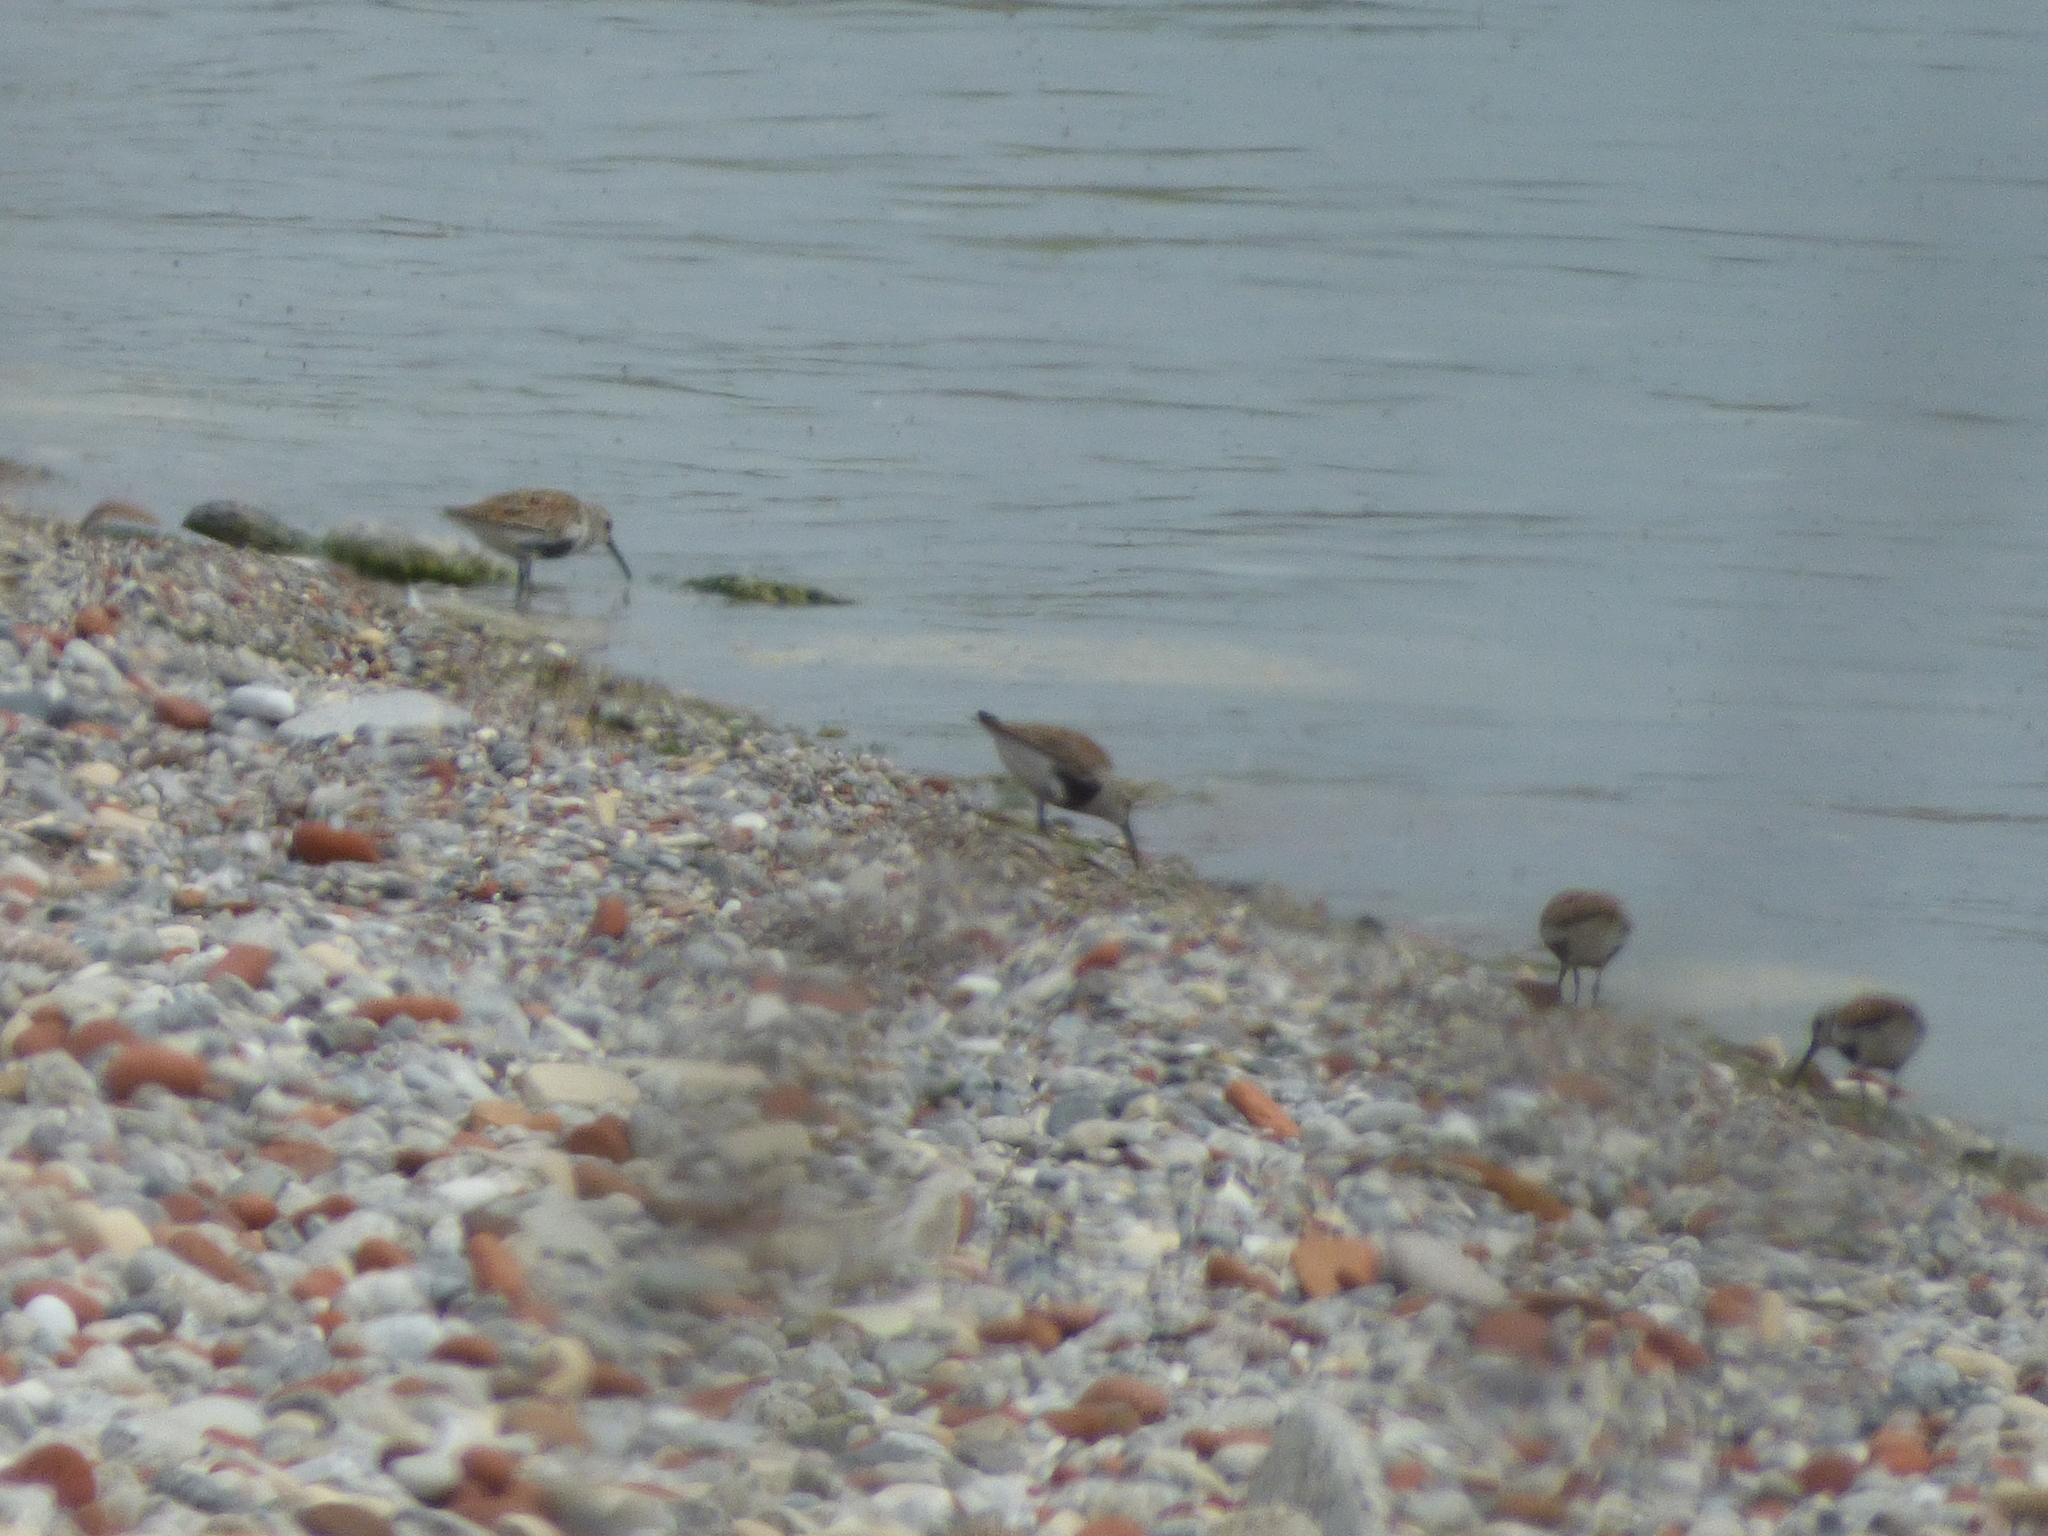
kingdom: Animalia
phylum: Chordata
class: Aves
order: Charadriiformes
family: Scolopacidae
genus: Calidris
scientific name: Calidris alpina
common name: Dunlin
